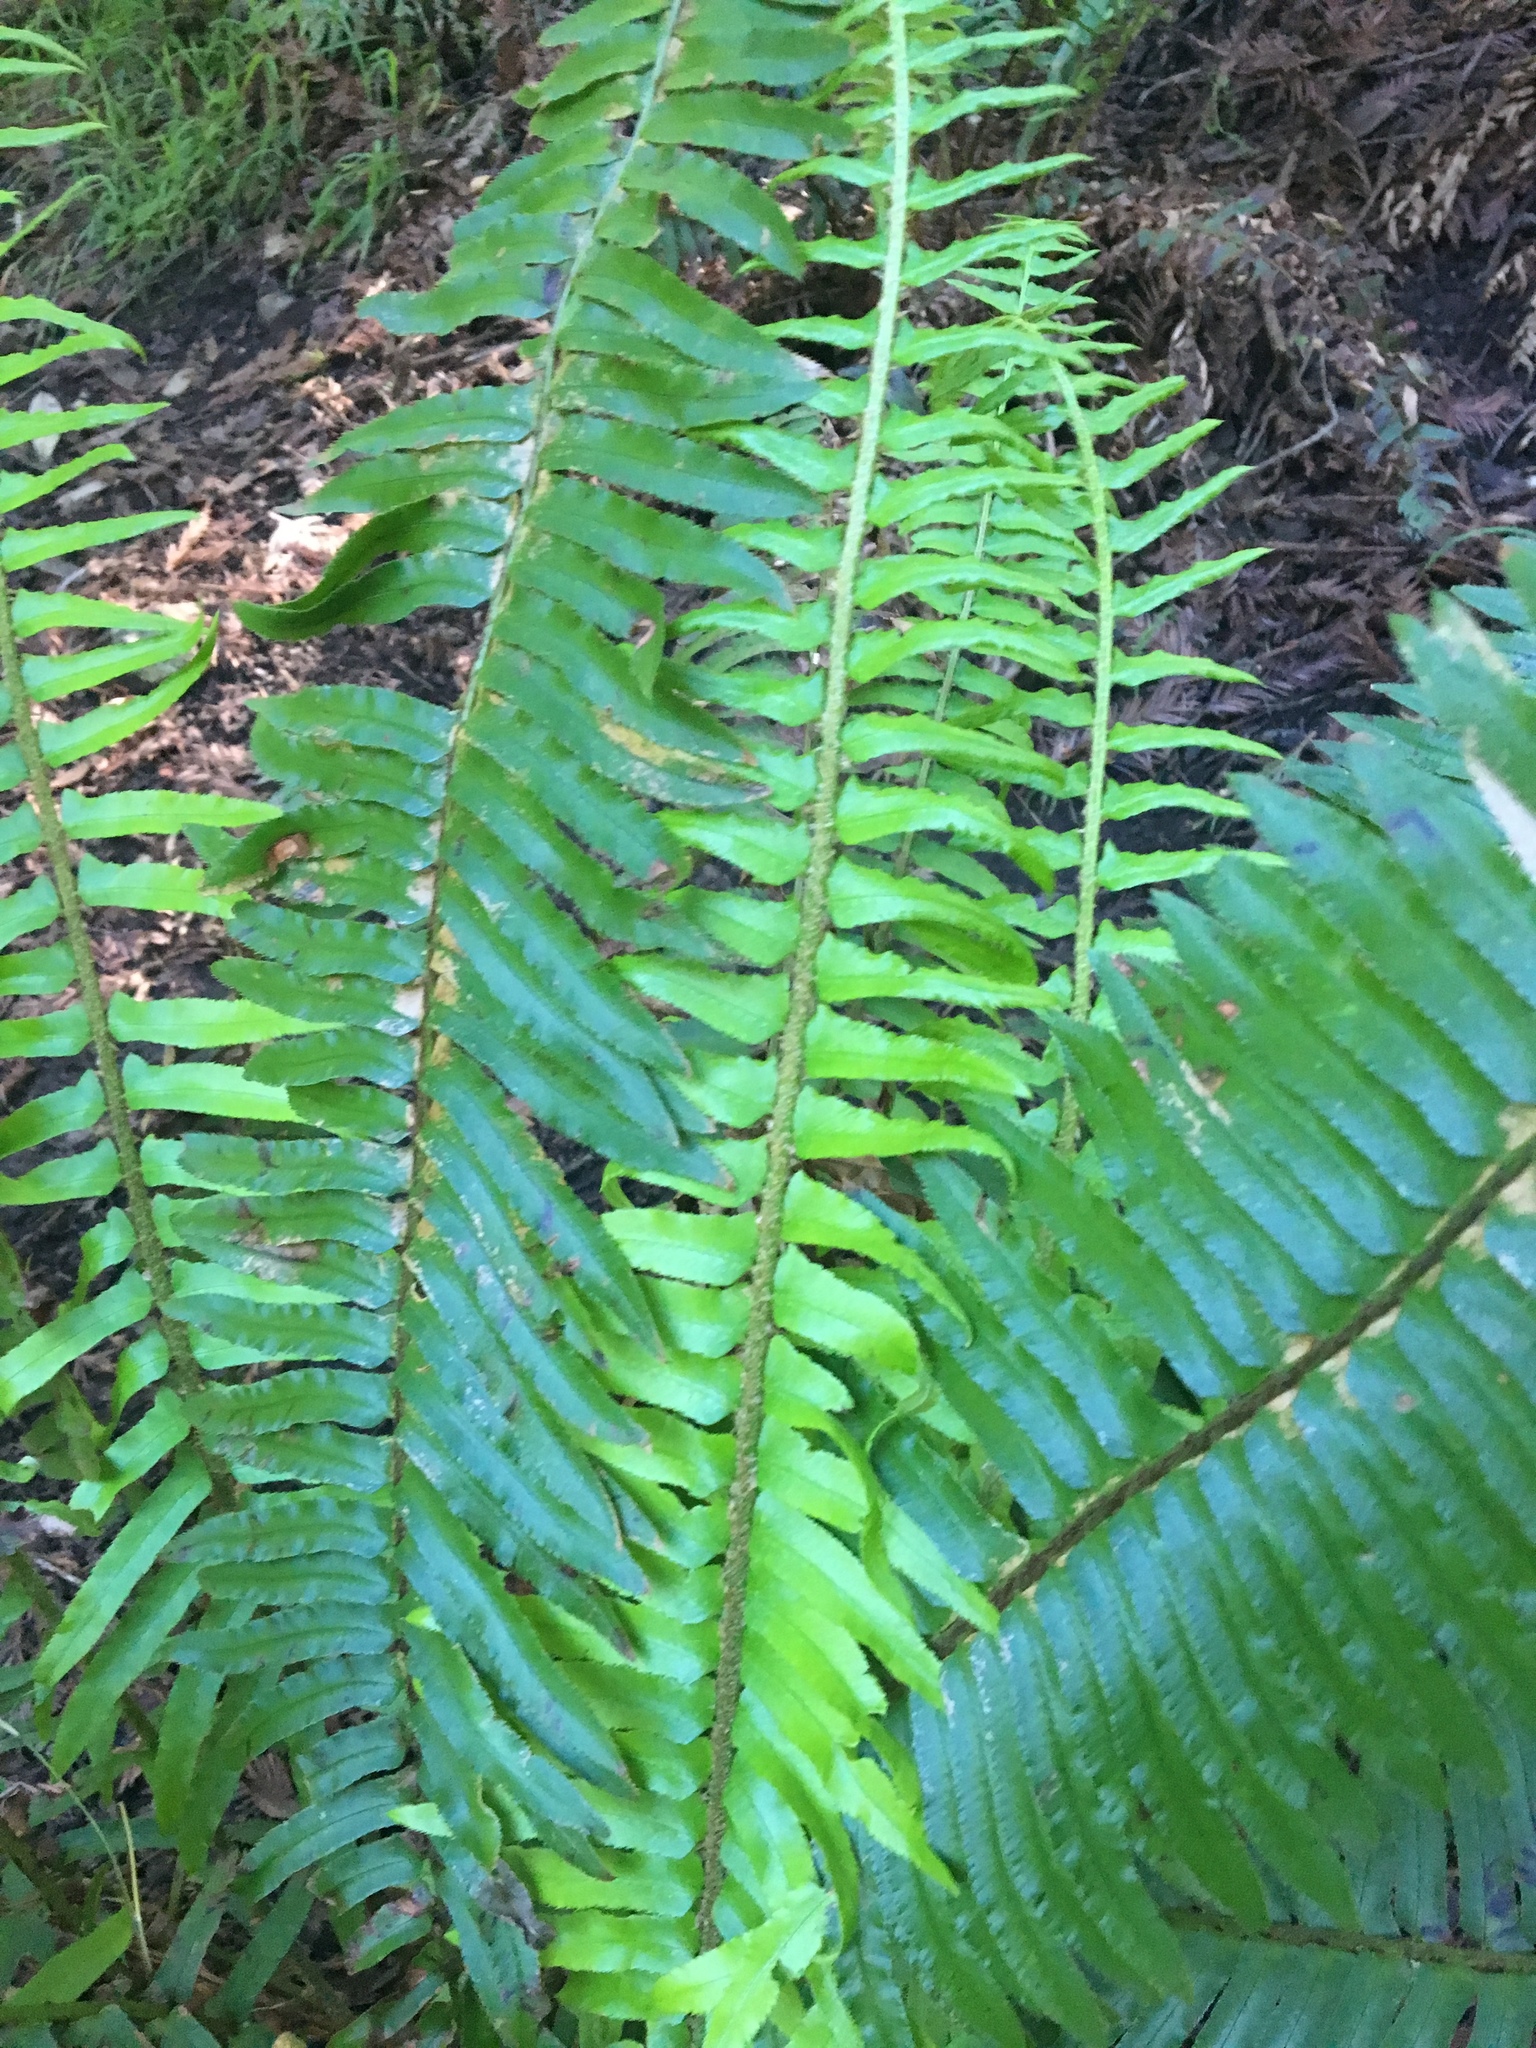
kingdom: Plantae
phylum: Tracheophyta
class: Polypodiopsida
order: Polypodiales
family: Dryopteridaceae
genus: Polystichum
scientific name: Polystichum munitum
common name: Western sword-fern
